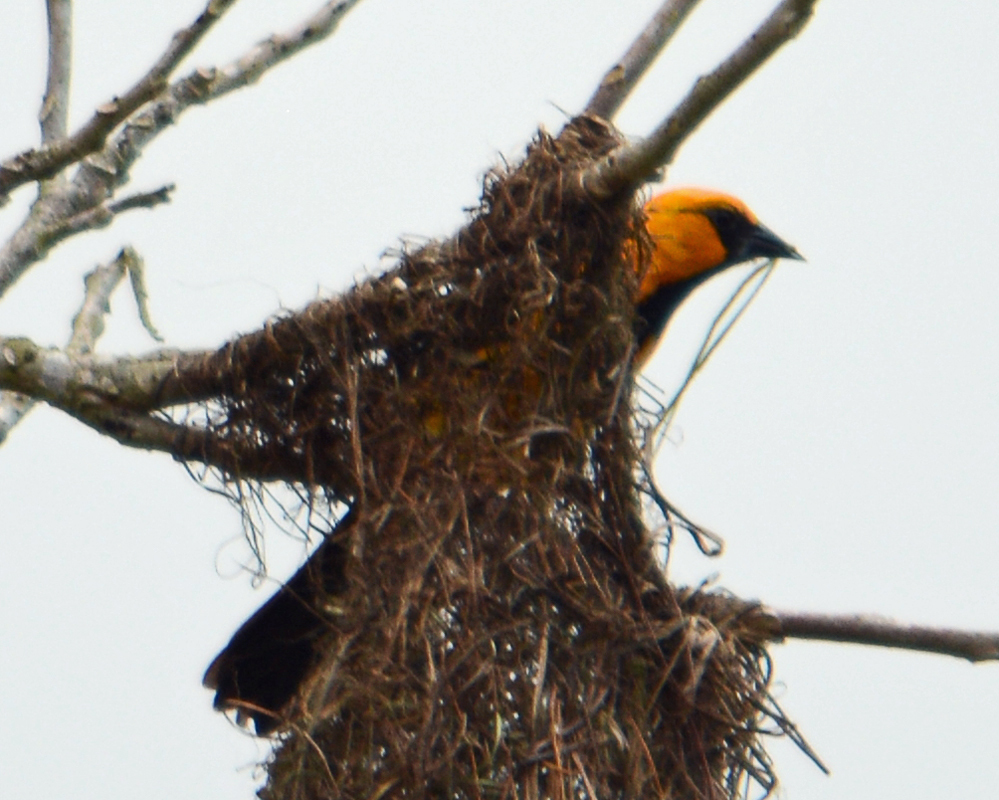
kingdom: Animalia
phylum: Chordata
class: Aves
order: Passeriformes
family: Icteridae
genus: Icterus
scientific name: Icterus gularis
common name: Altamira oriole
